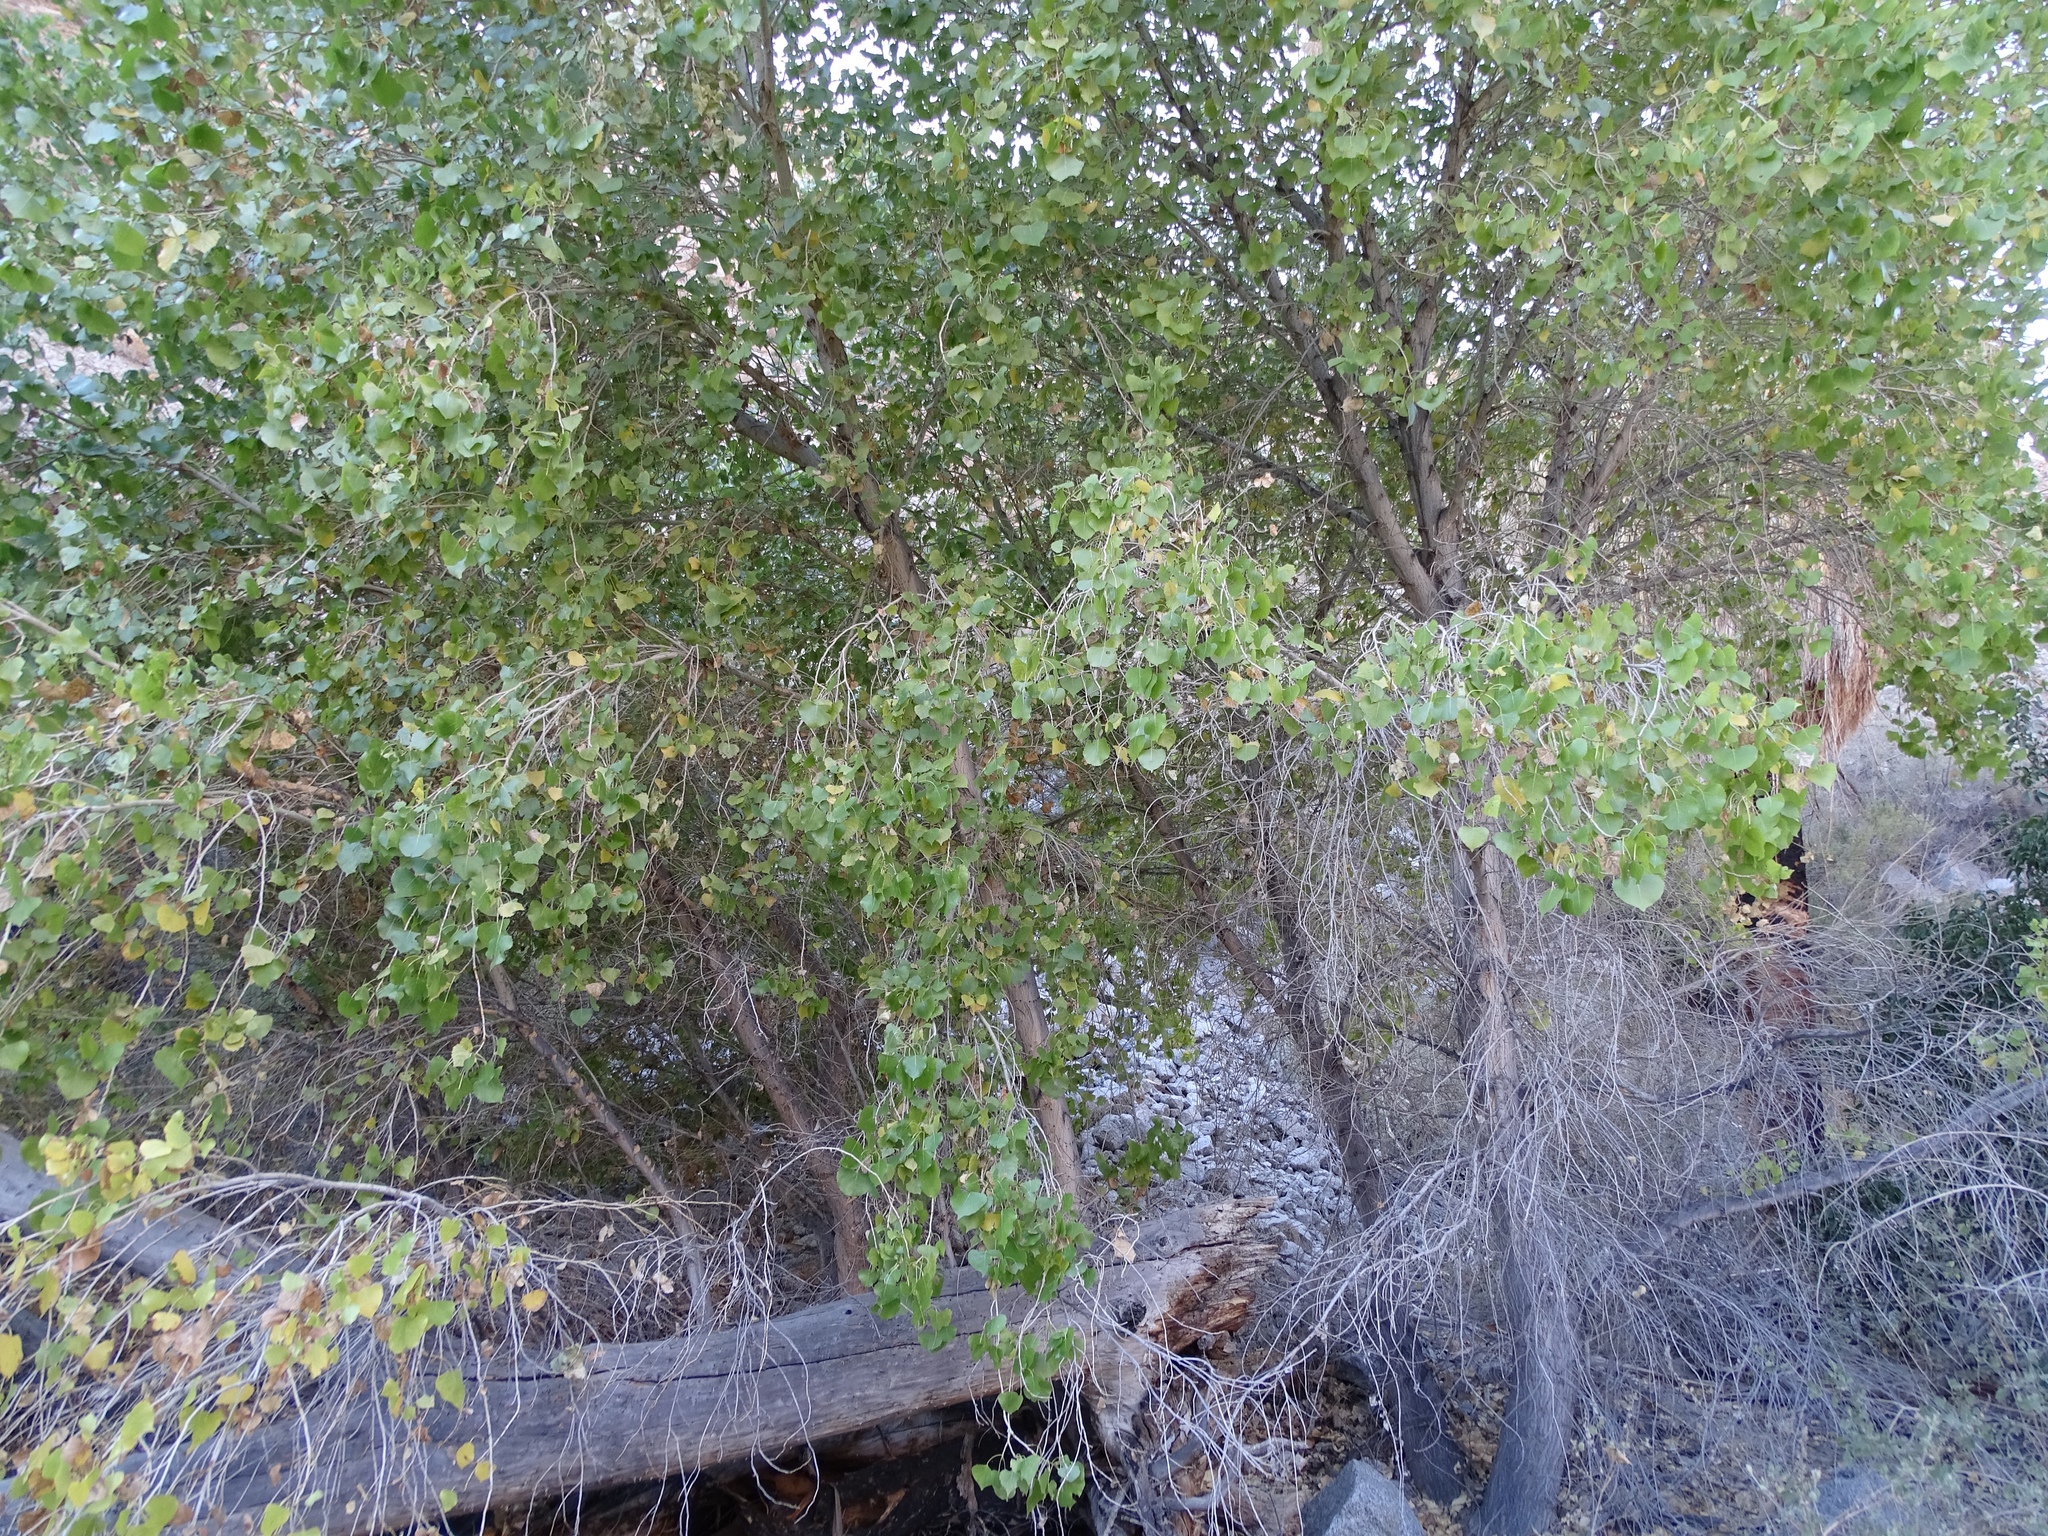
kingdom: Plantae
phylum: Tracheophyta
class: Magnoliopsida
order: Malpighiales
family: Salicaceae
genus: Populus
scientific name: Populus fremontii
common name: Fremont's cottonwood
